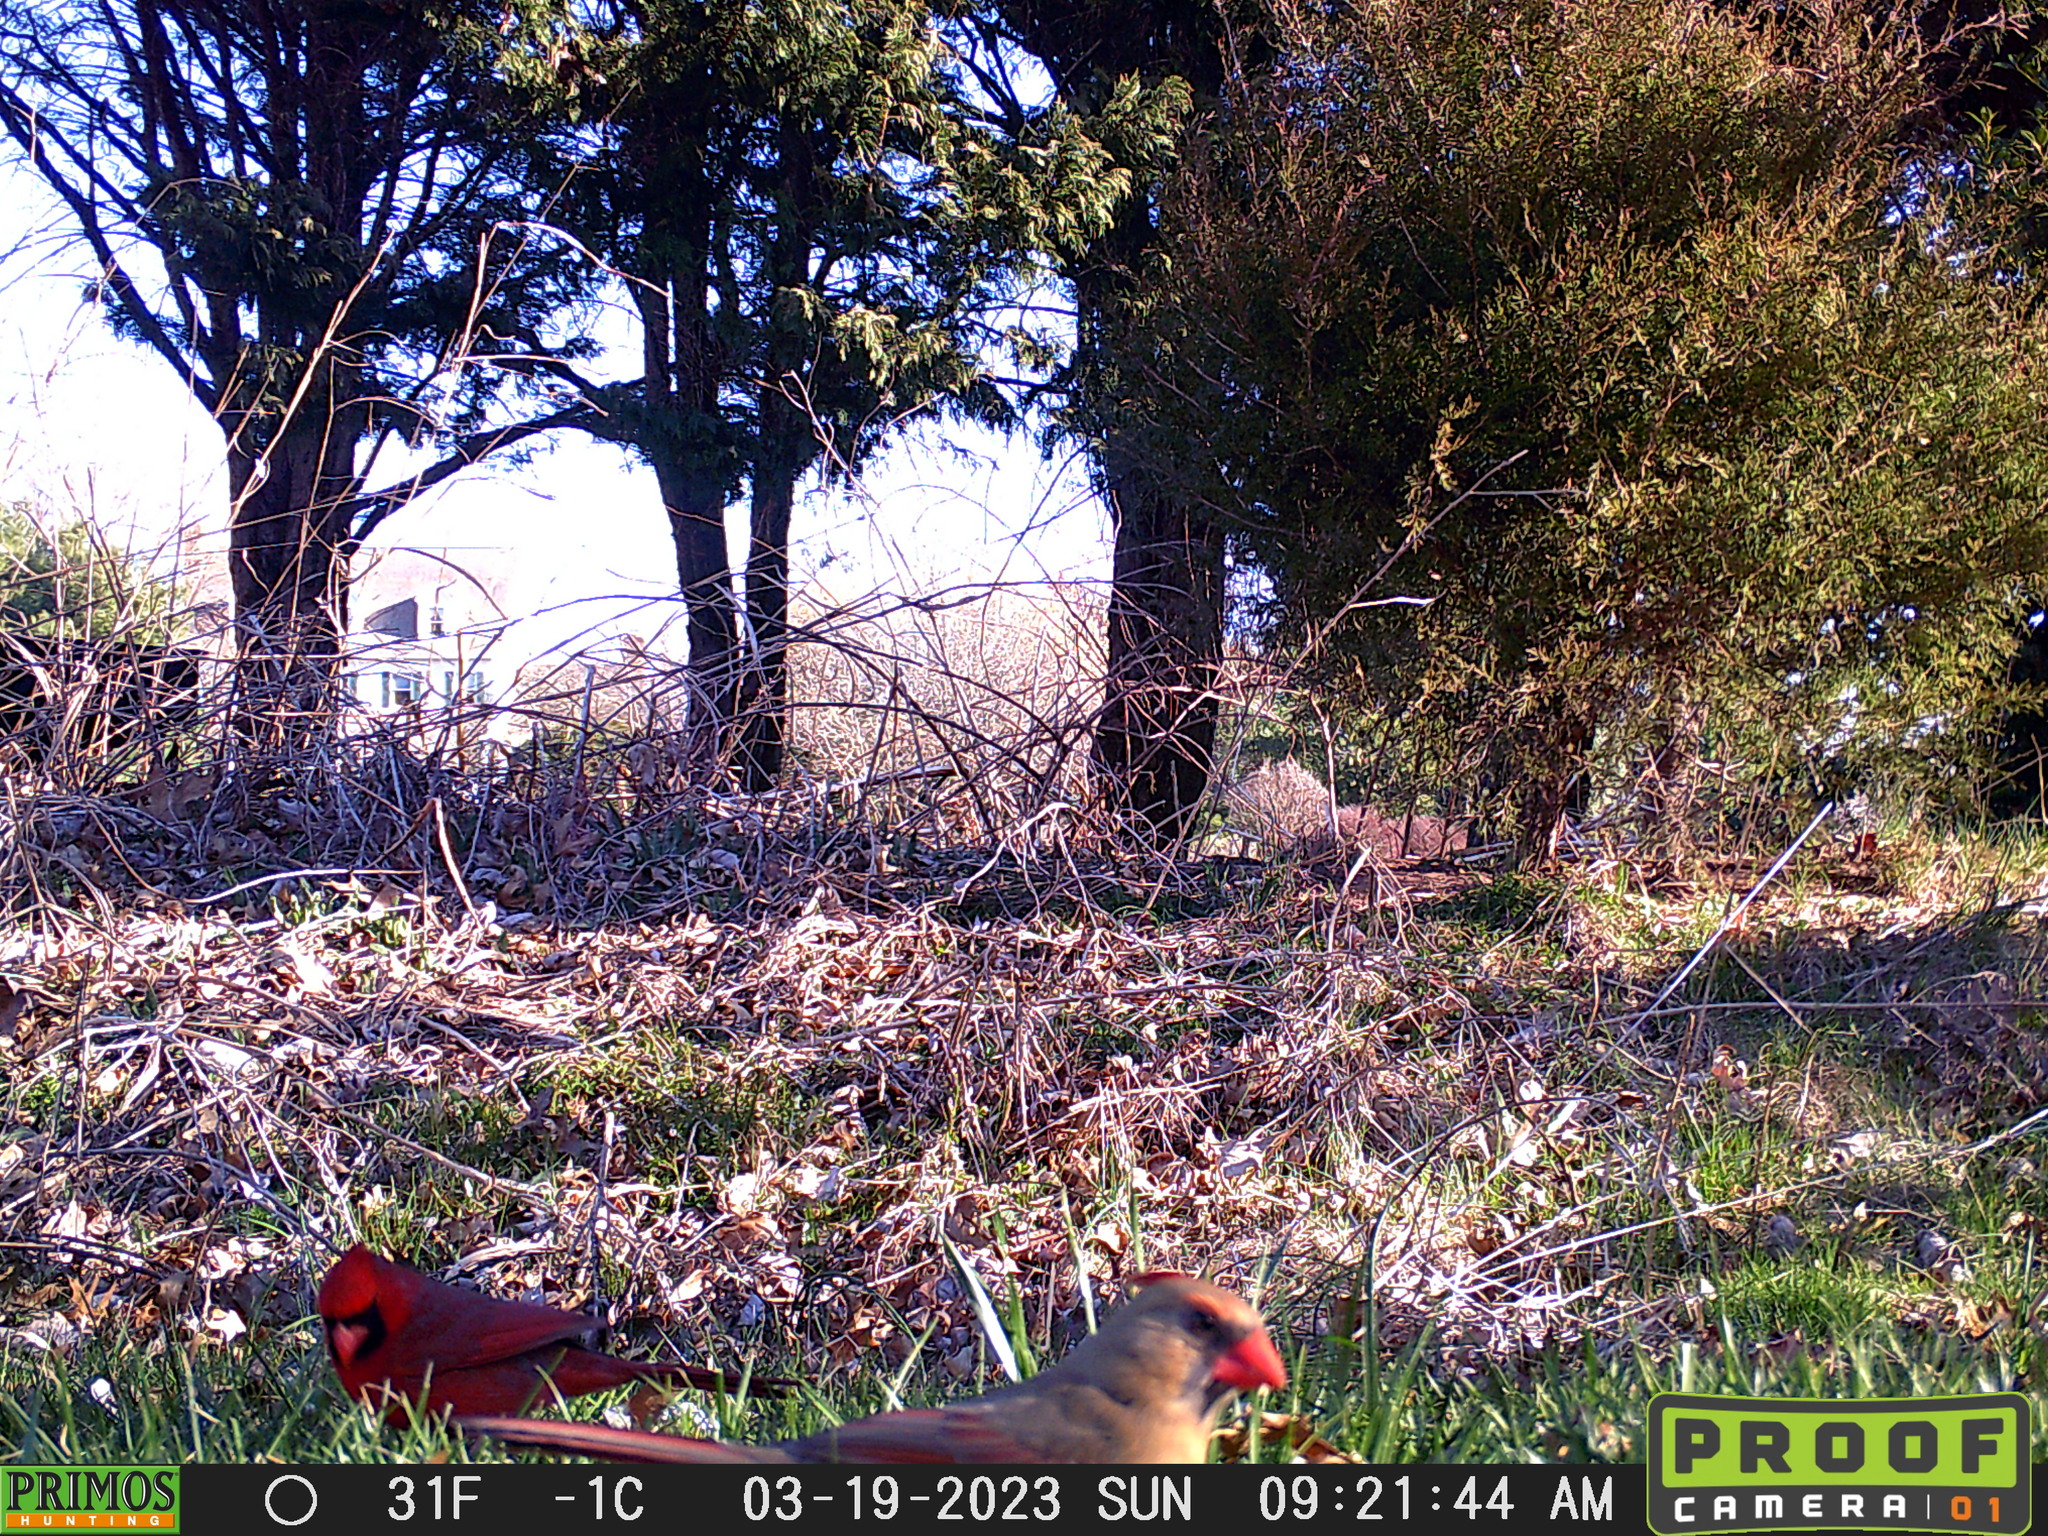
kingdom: Animalia
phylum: Chordata
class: Aves
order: Passeriformes
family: Cardinalidae
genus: Cardinalis
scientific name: Cardinalis cardinalis
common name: Northern cardinal
